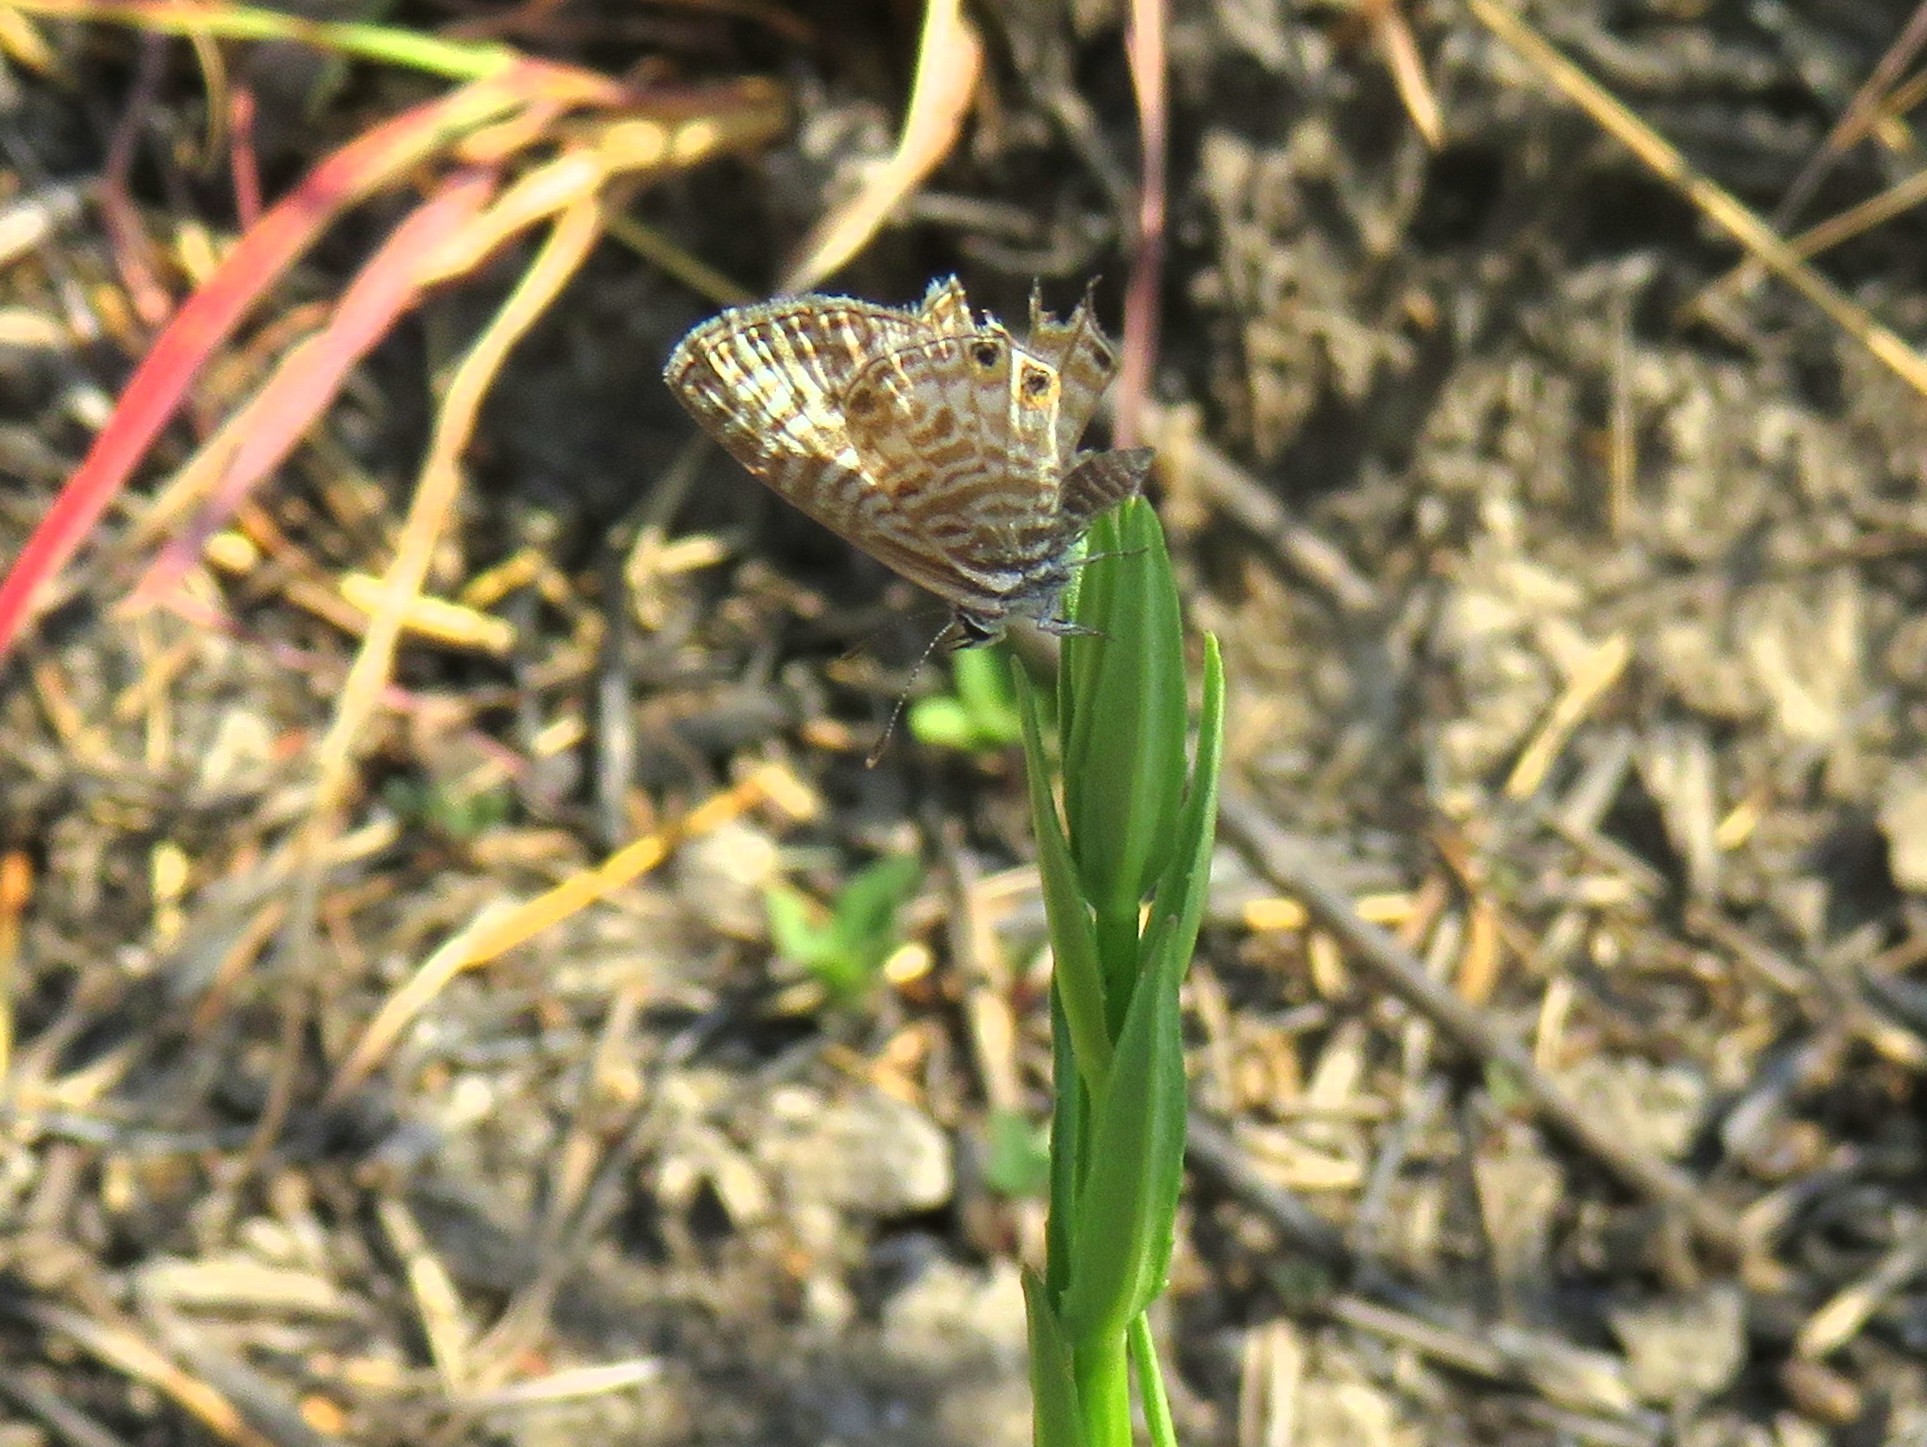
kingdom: Animalia
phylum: Arthropoda
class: Insecta
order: Lepidoptera
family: Lycaenidae
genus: Leptotes
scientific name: Leptotes
